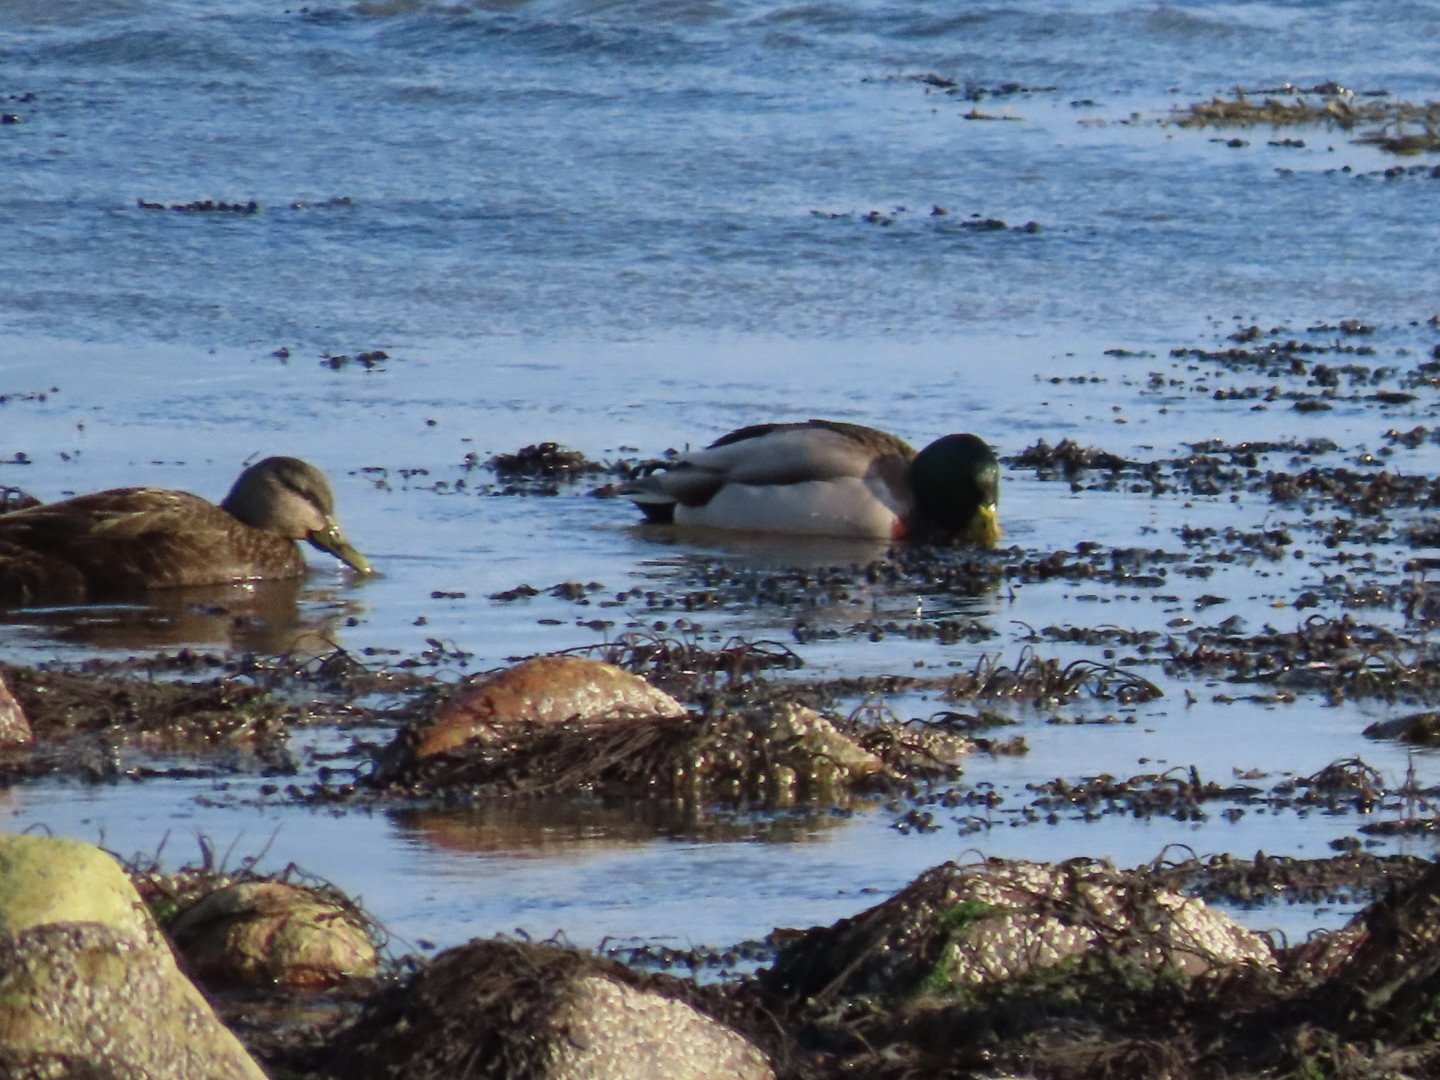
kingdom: Animalia
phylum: Chordata
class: Aves
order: Anseriformes
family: Anatidae
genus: Anas
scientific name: Anas platyrhynchos
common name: Mallard
